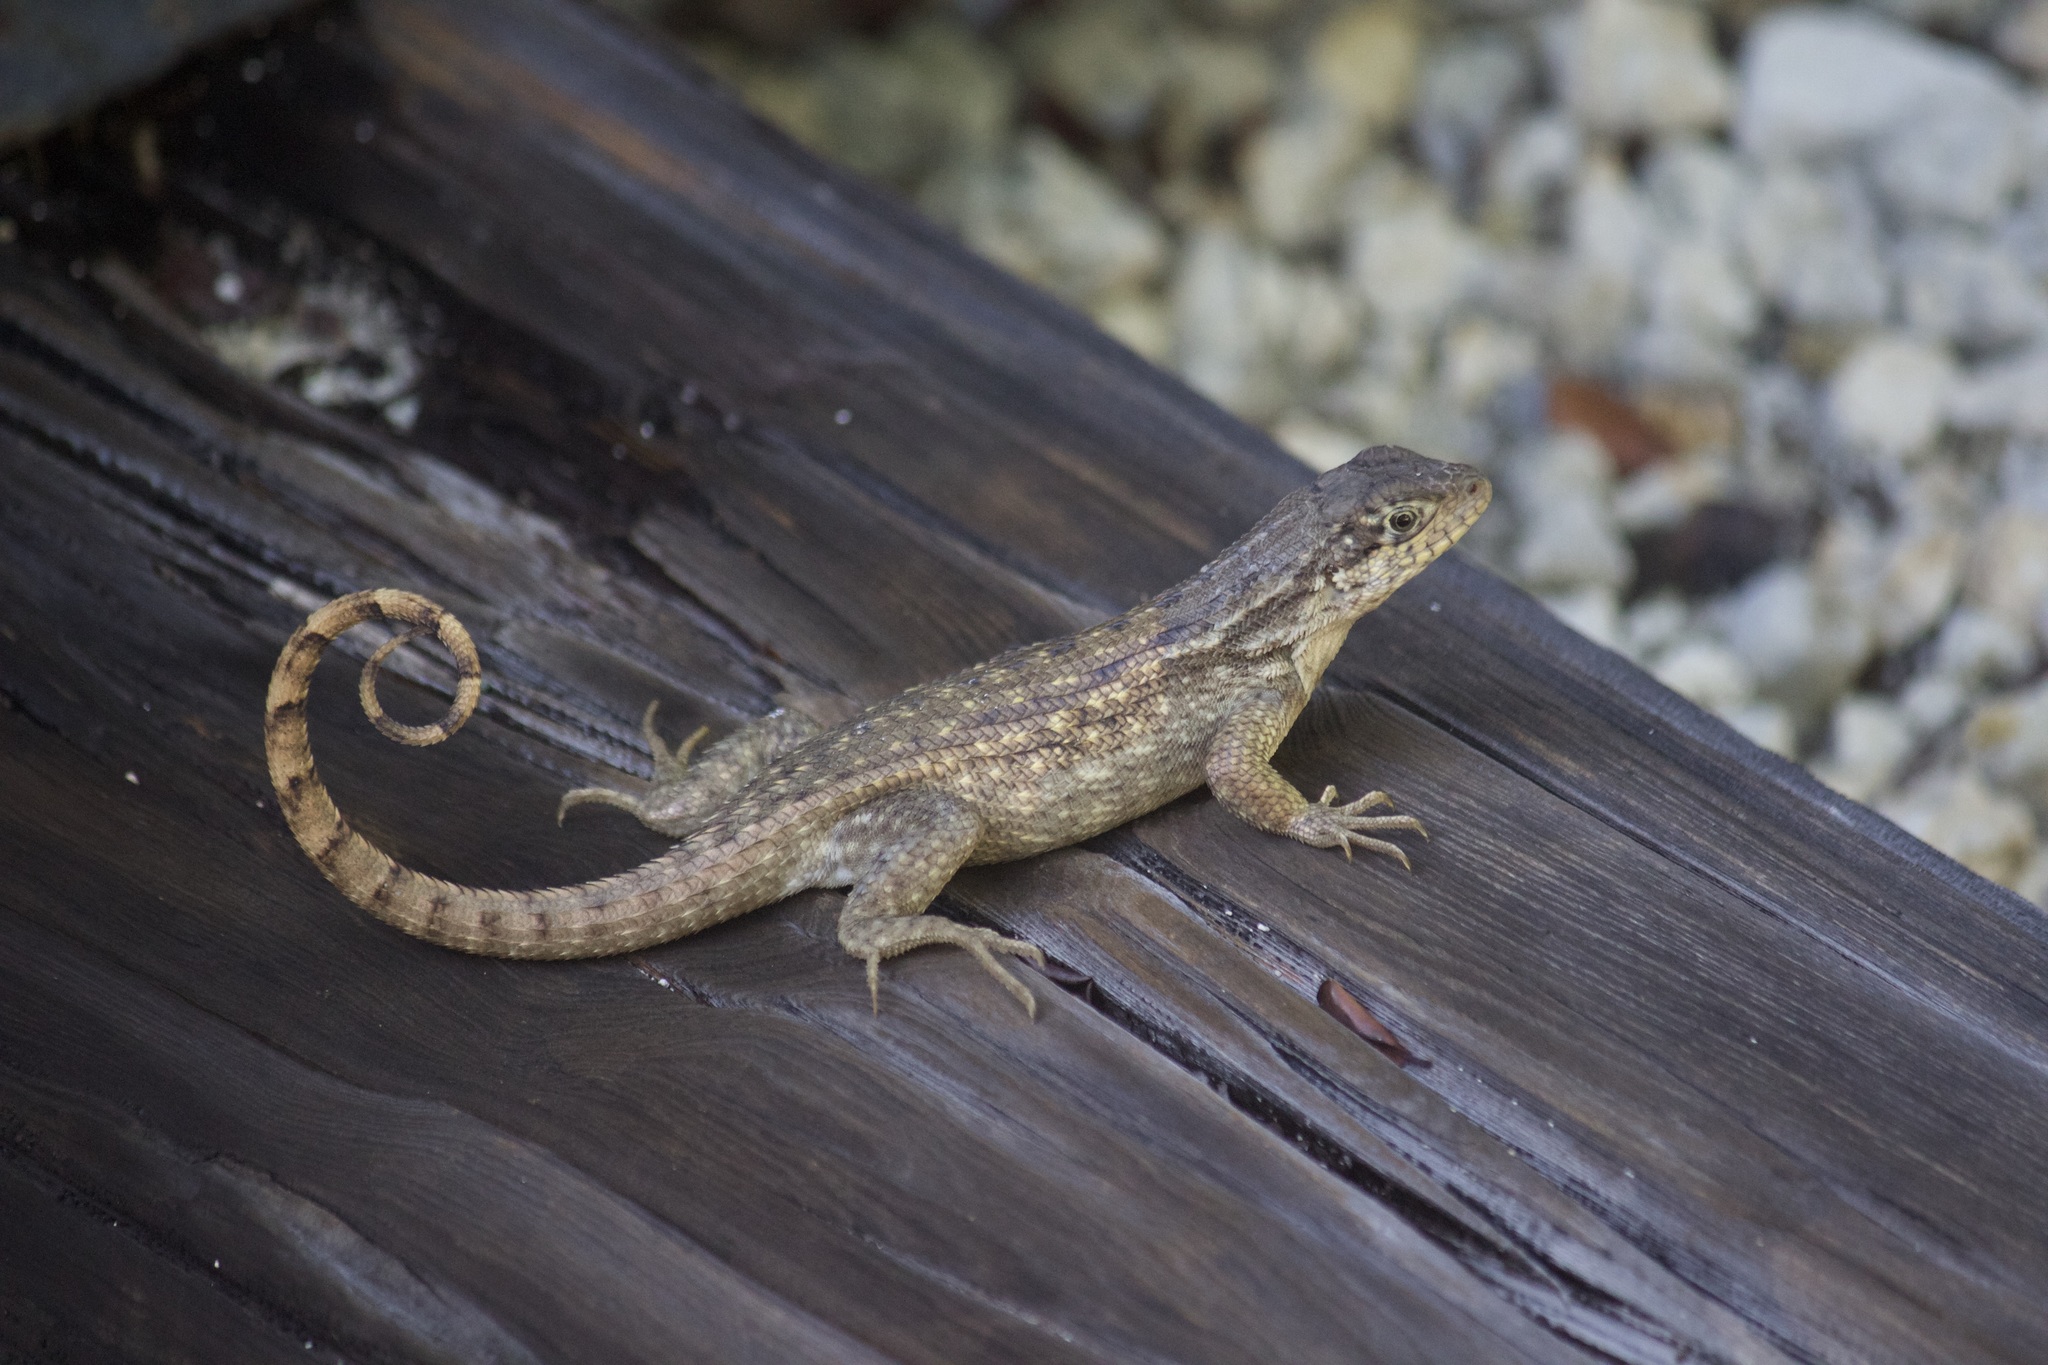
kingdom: Animalia
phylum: Chordata
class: Squamata
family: Leiocephalidae
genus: Leiocephalus
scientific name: Leiocephalus carinatus
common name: Northern curly-tailed lizard
